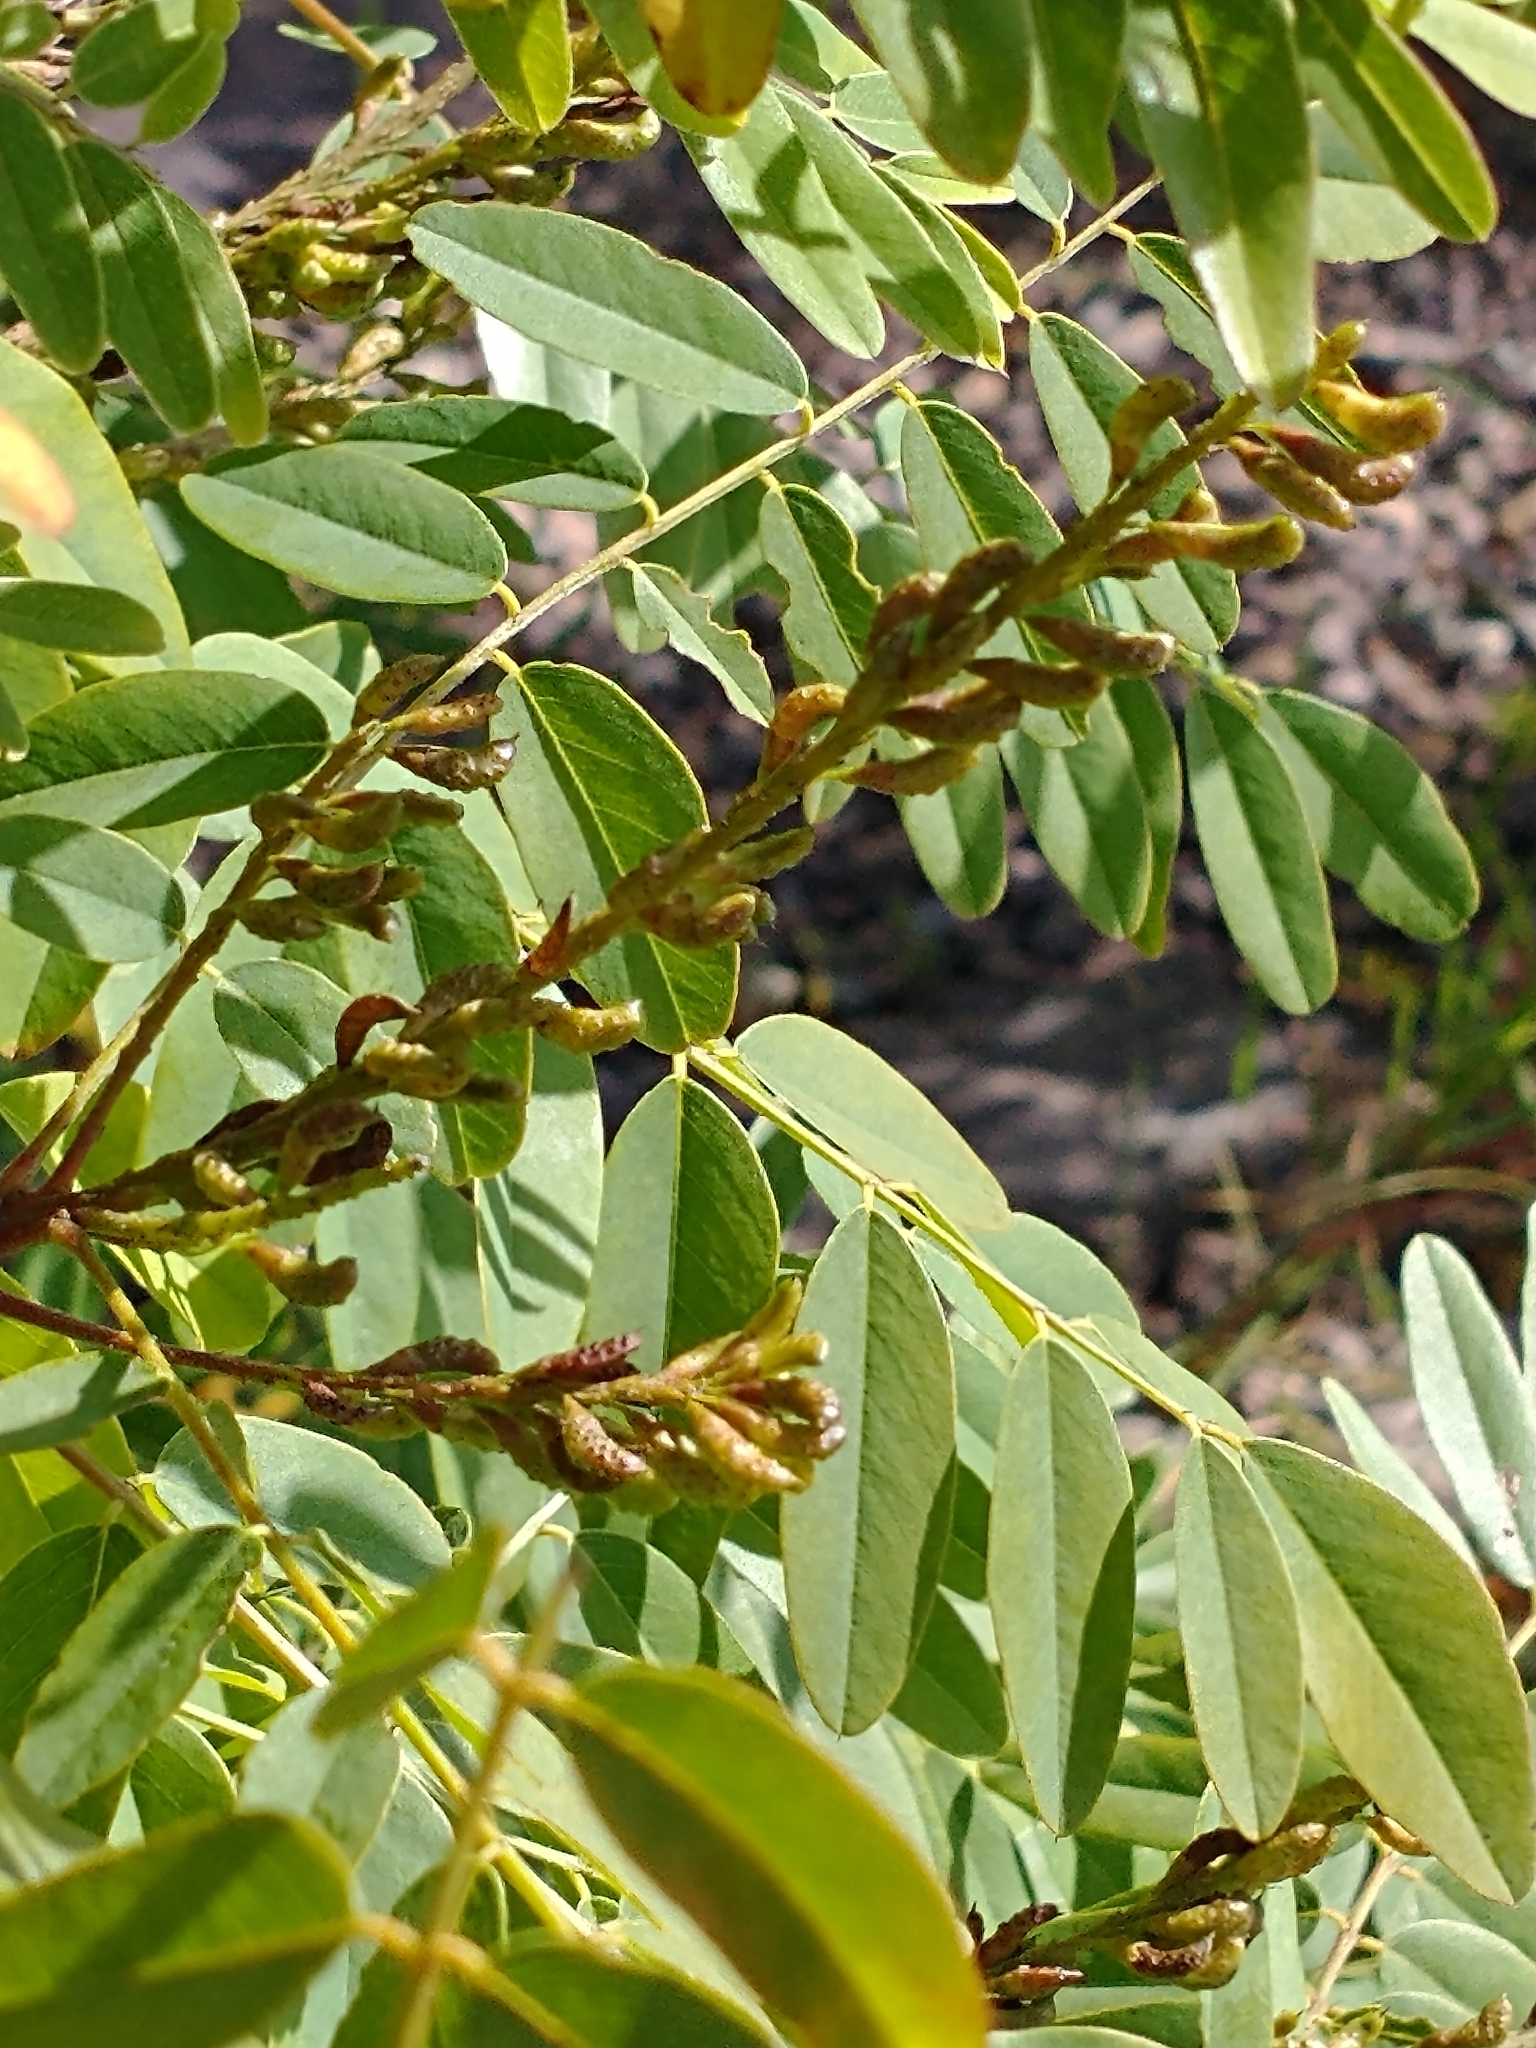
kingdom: Plantae
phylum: Tracheophyta
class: Magnoliopsida
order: Fabales
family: Fabaceae
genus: Amorpha
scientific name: Amorpha fruticosa
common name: False indigo
